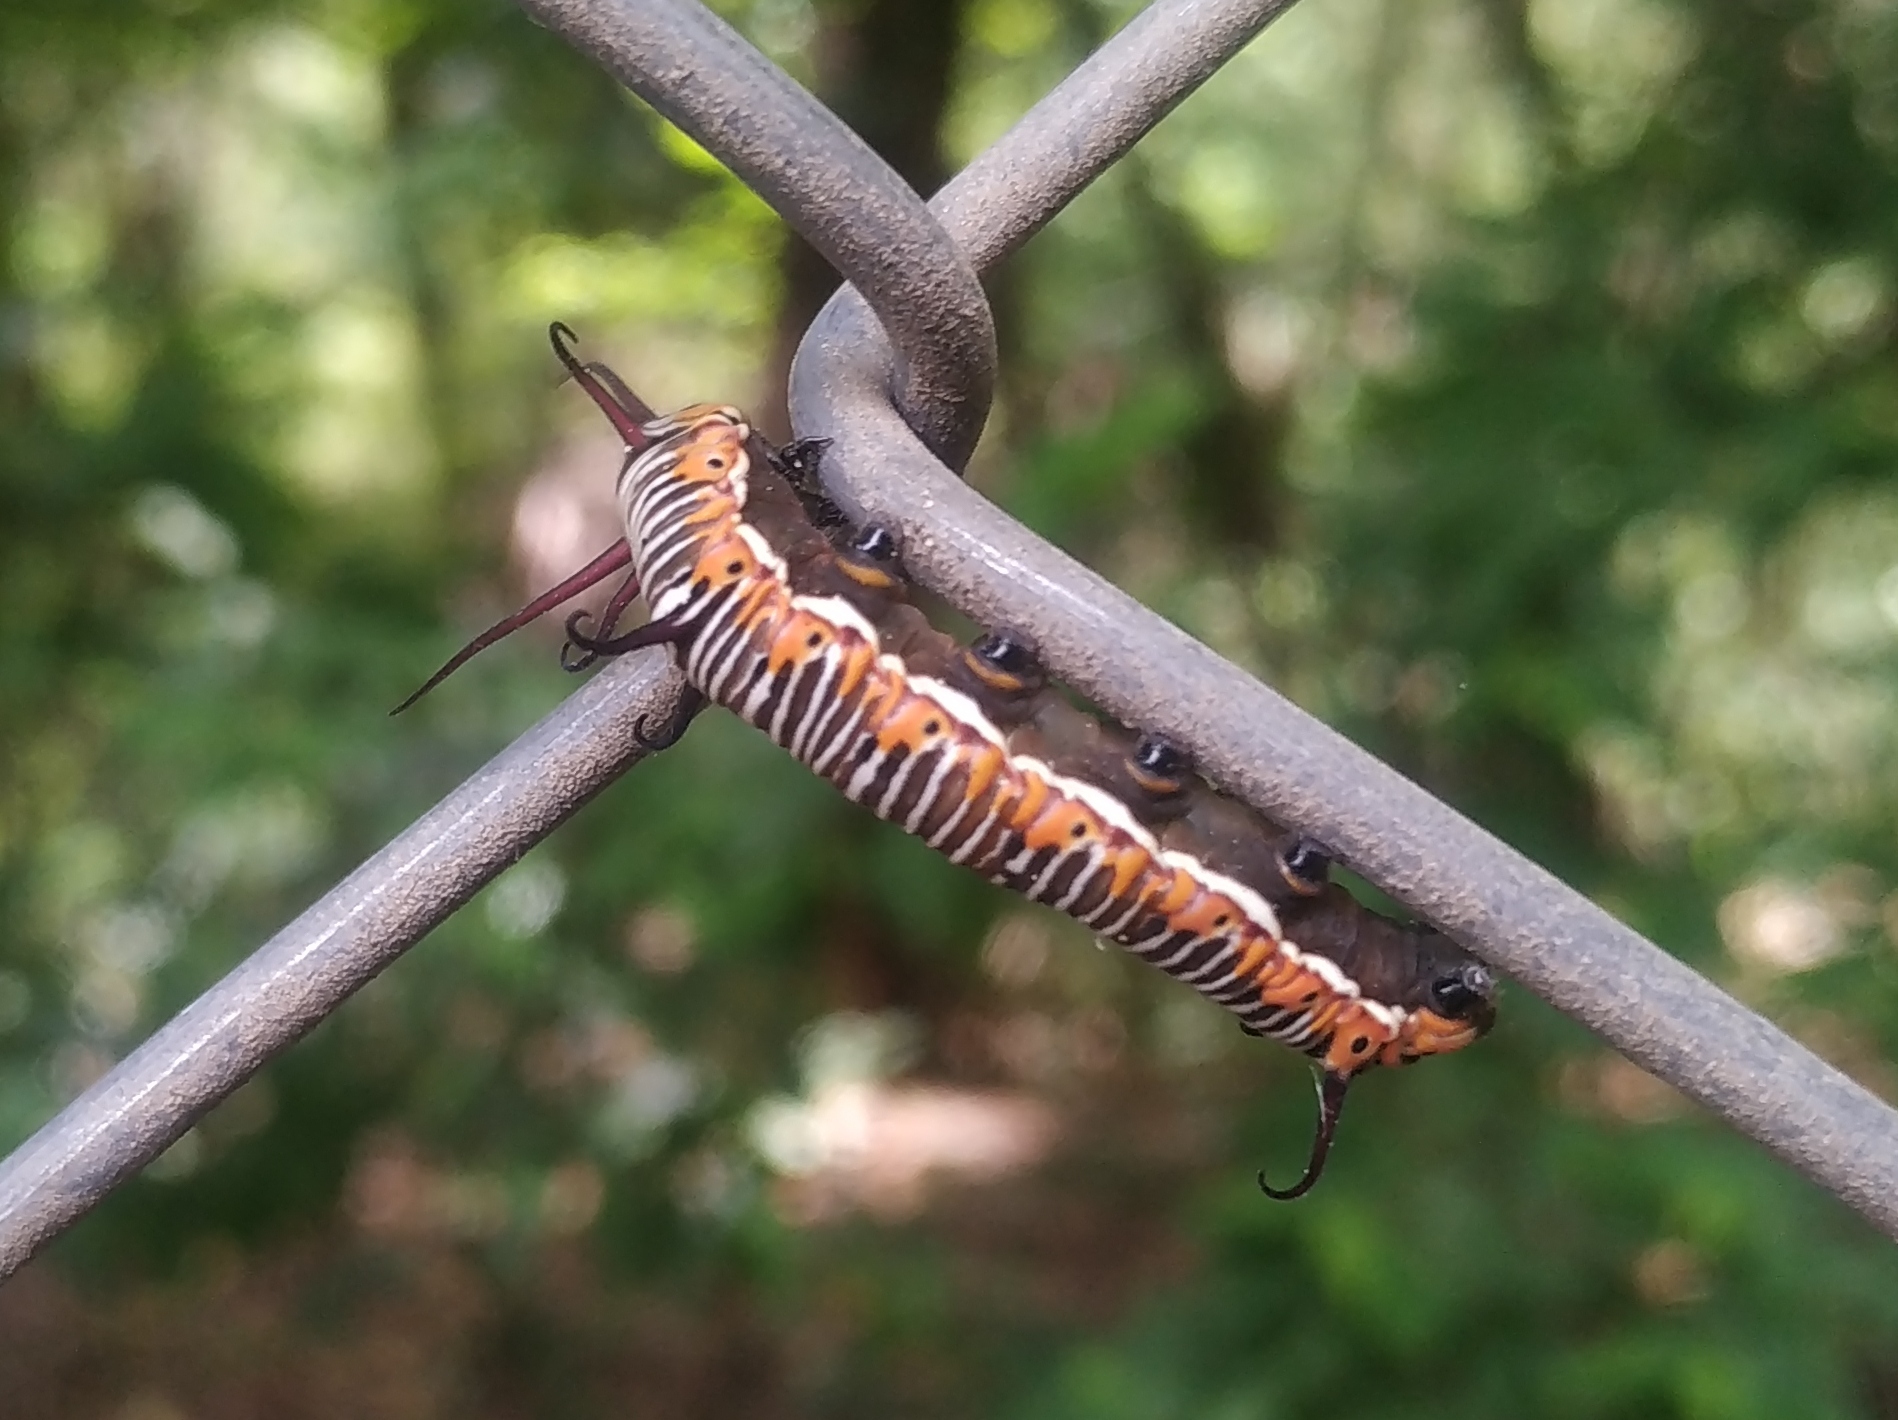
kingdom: Animalia
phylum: Arthropoda
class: Insecta
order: Lepidoptera
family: Nymphalidae
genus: Euploea
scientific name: Euploea core
